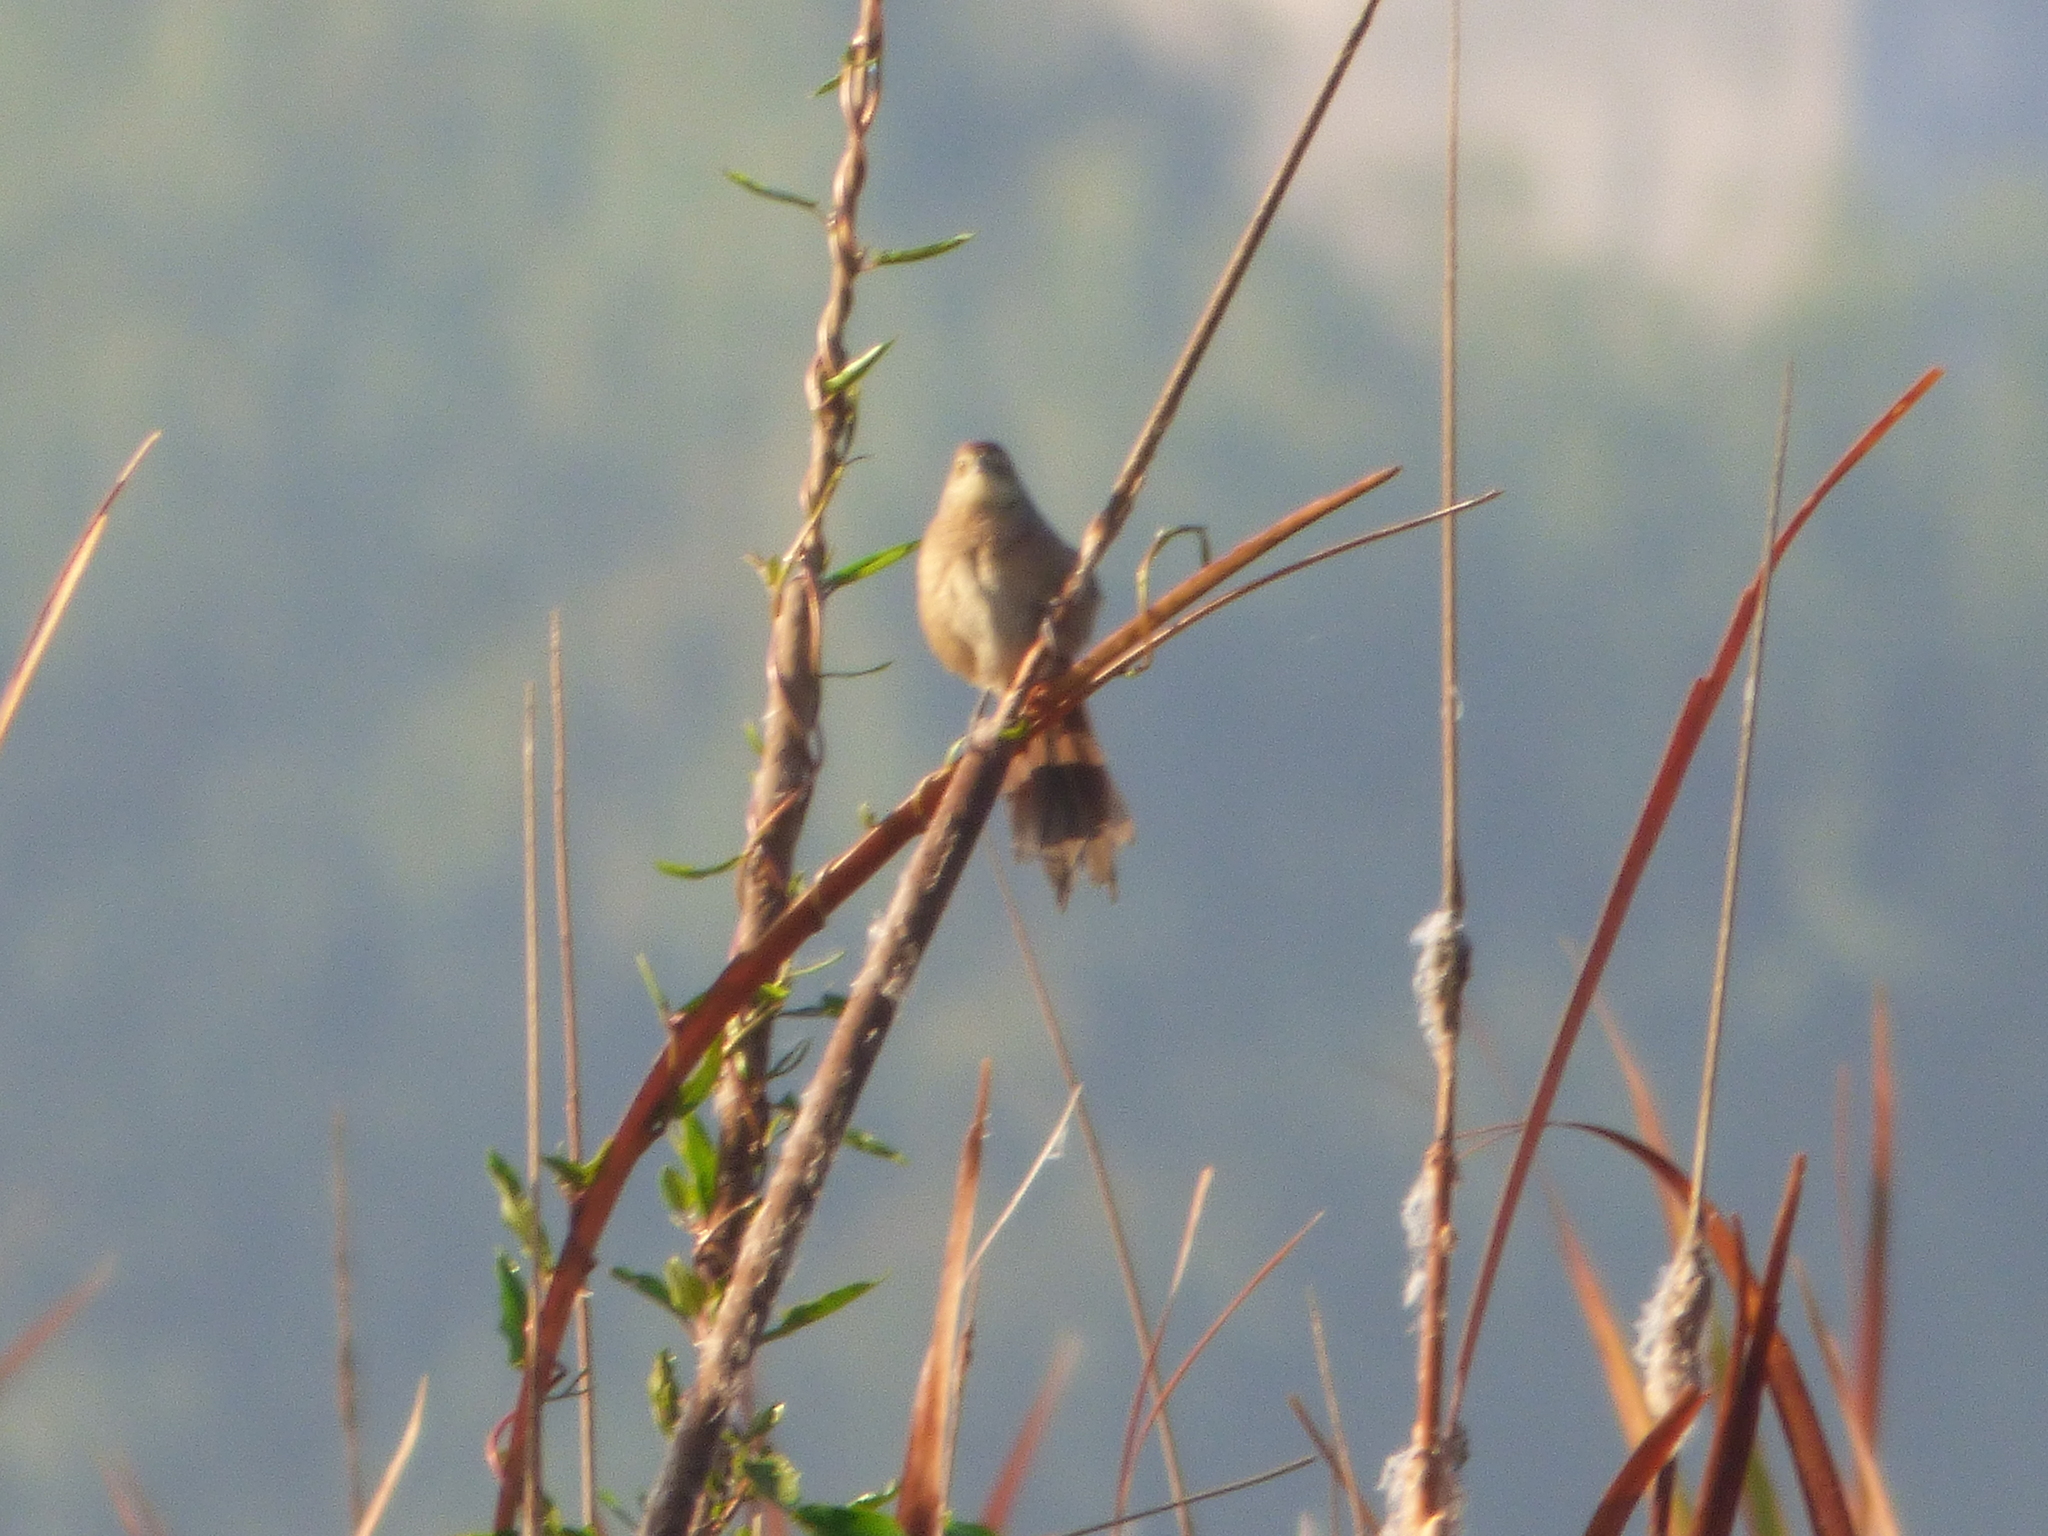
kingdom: Animalia
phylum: Chordata
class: Aves
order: Passeriformes
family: Furnariidae
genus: Phacellodomus
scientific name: Phacellodomus striaticollis
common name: Freckle-breasted thornbird
